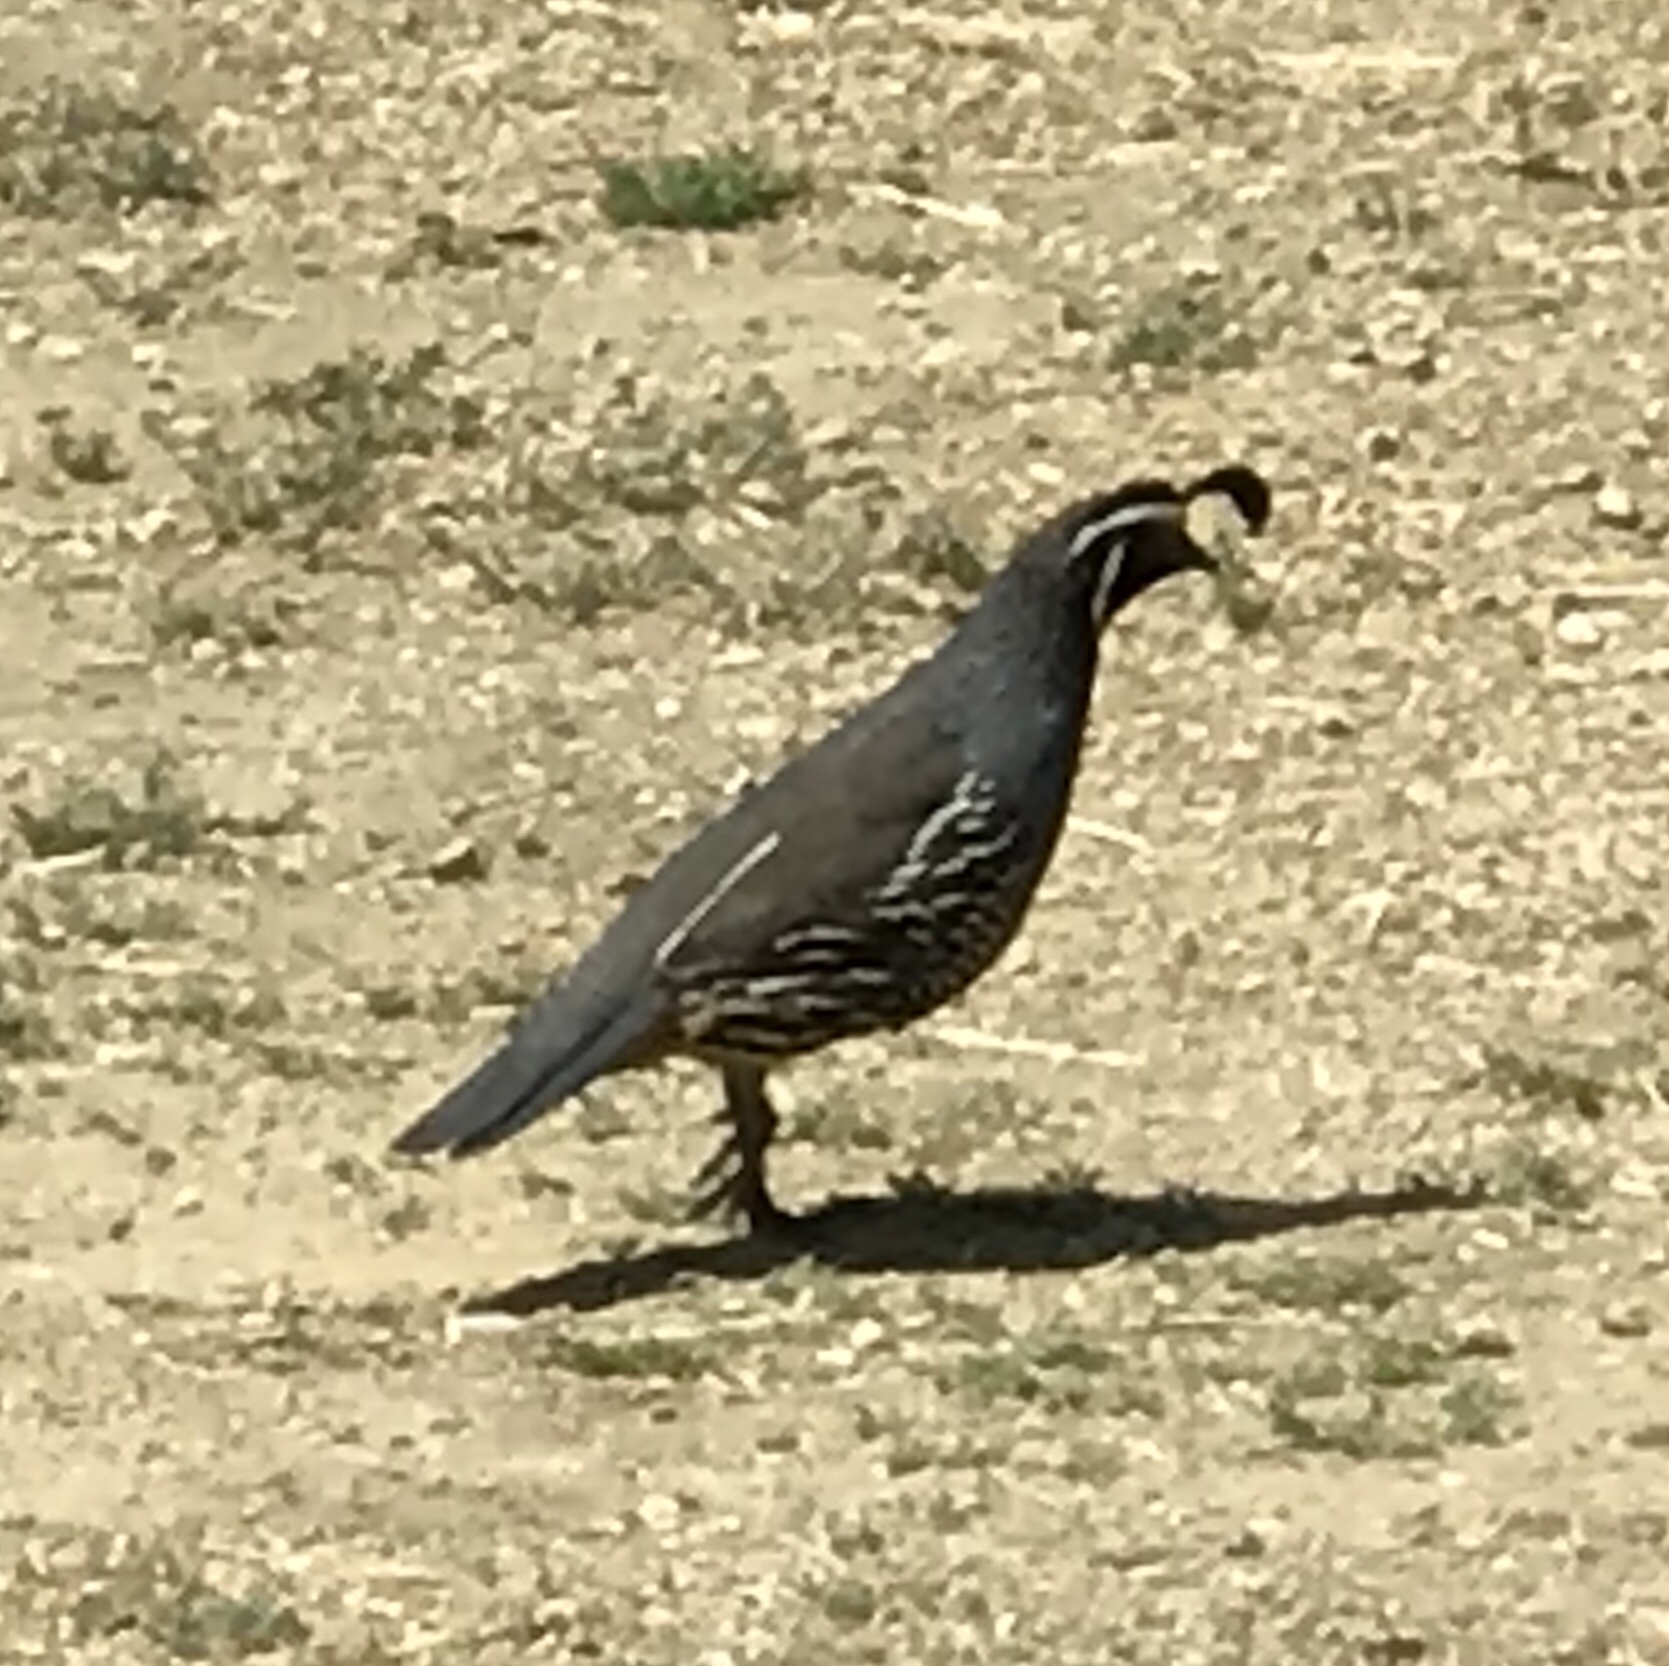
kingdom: Animalia
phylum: Chordata
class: Aves
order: Galliformes
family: Odontophoridae
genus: Callipepla
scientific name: Callipepla californica
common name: California quail
